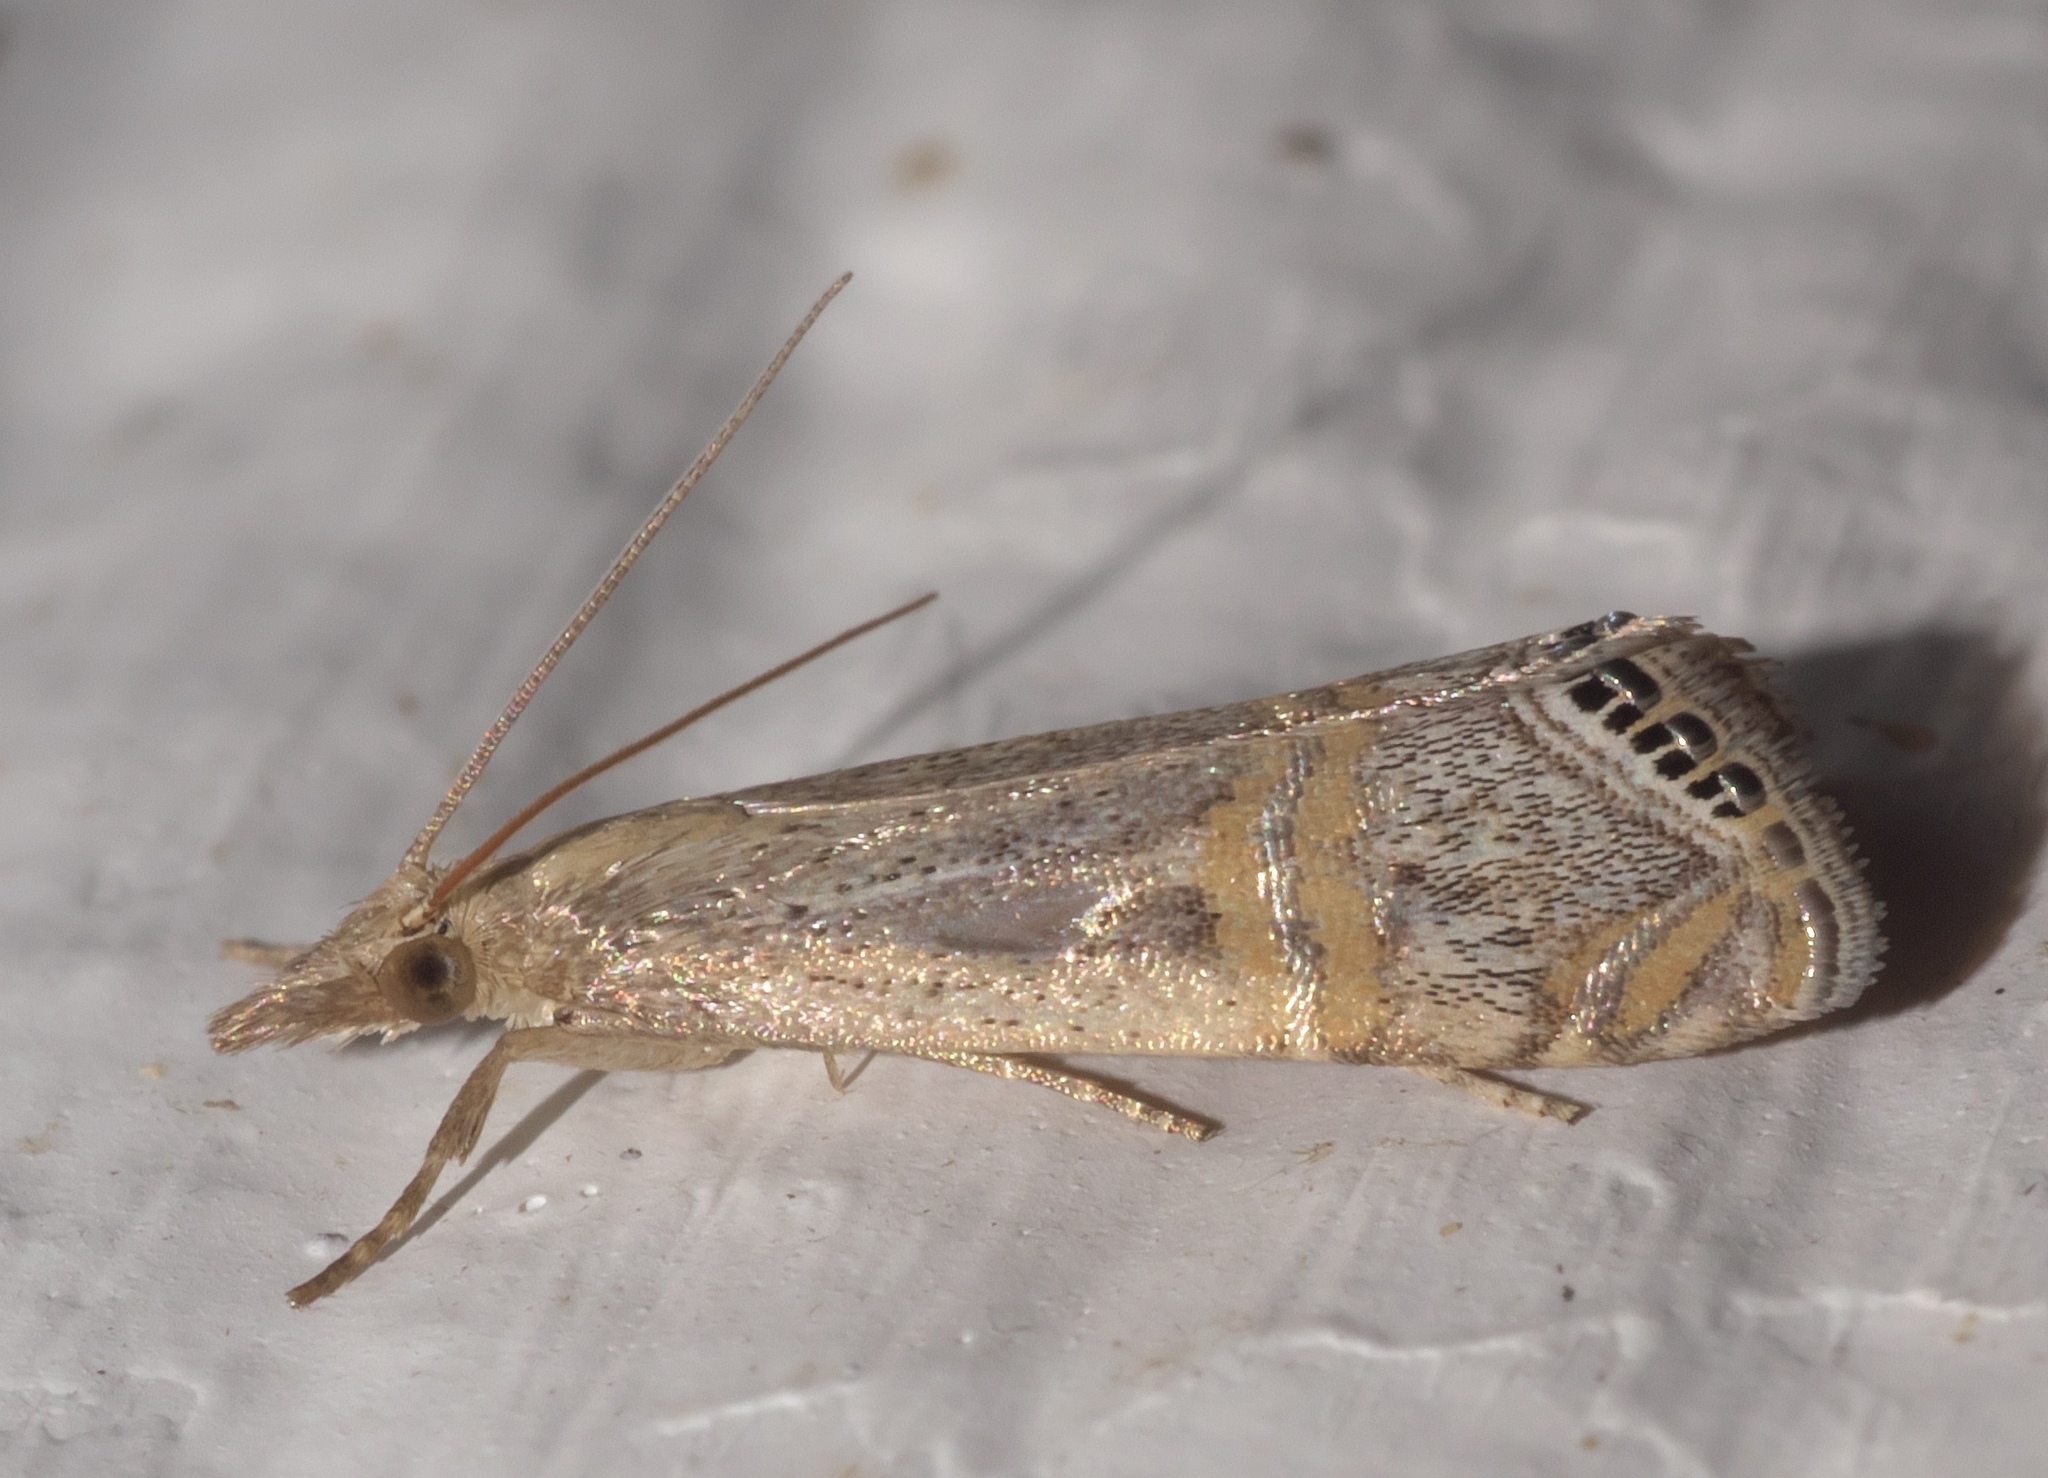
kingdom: Animalia
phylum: Arthropoda
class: Insecta
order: Lepidoptera
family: Crambidae
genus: Euchromius
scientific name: Euchromius ocellea
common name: Necklace veneer moth
